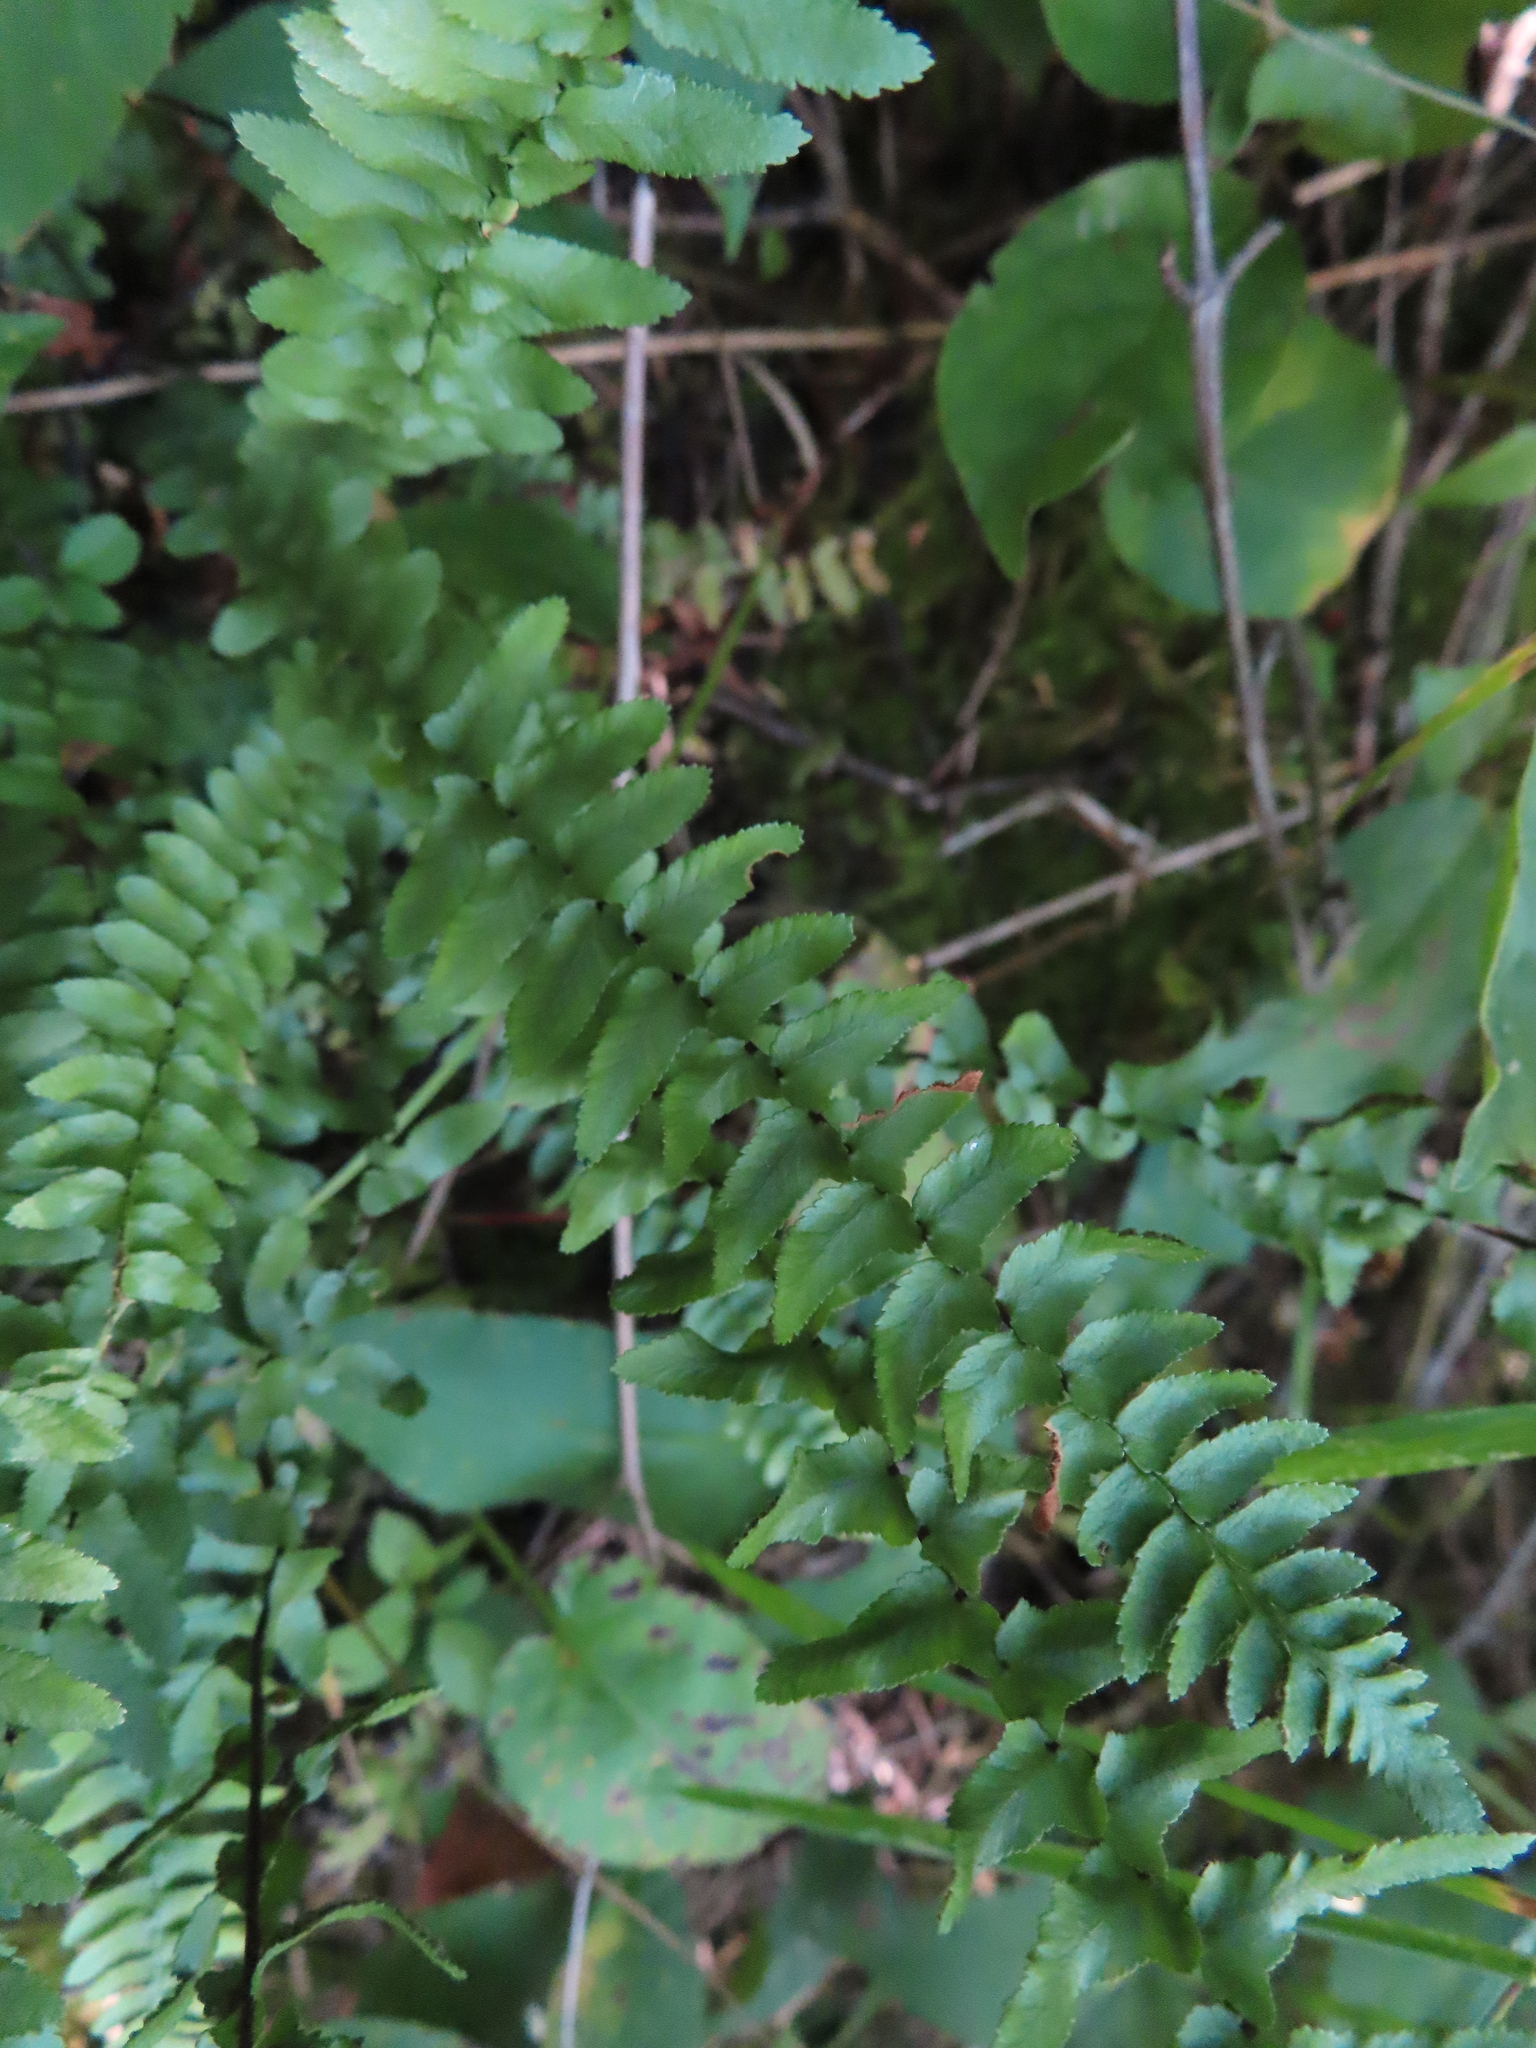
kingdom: Plantae
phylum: Tracheophyta
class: Polypodiopsida
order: Polypodiales
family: Aspleniaceae
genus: Asplenium
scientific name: Asplenium platyneuron
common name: Ebony spleenwort
